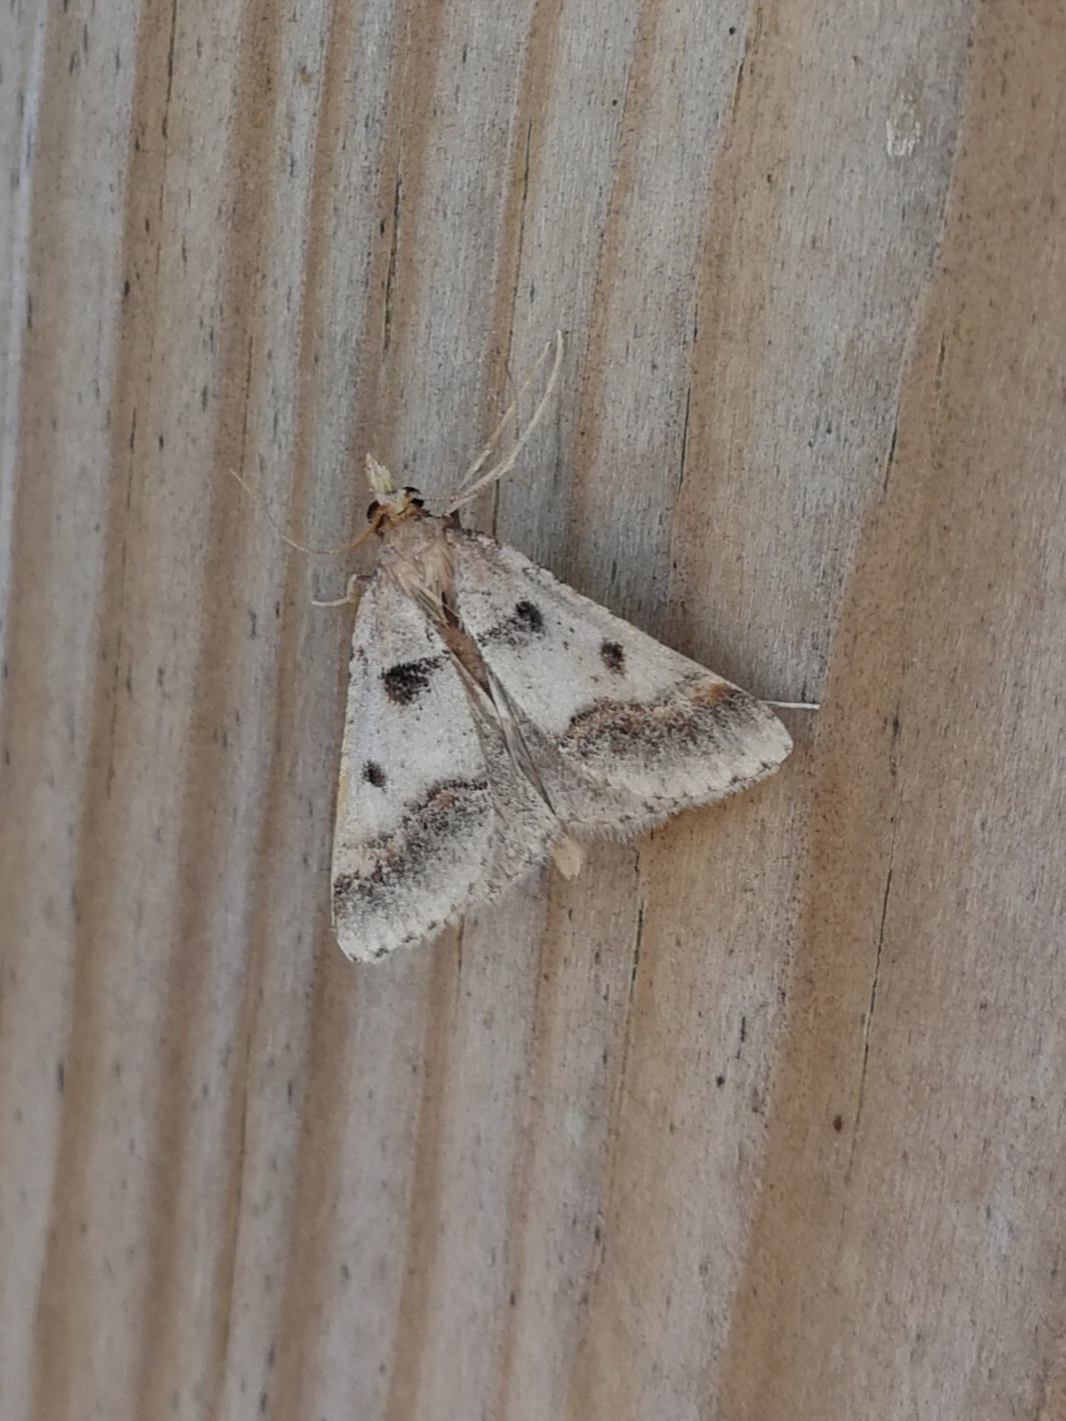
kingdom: Animalia
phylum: Arthropoda
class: Insecta
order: Lepidoptera
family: Pyralidae
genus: Stemmatophora
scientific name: Stemmatophora brunnealis
